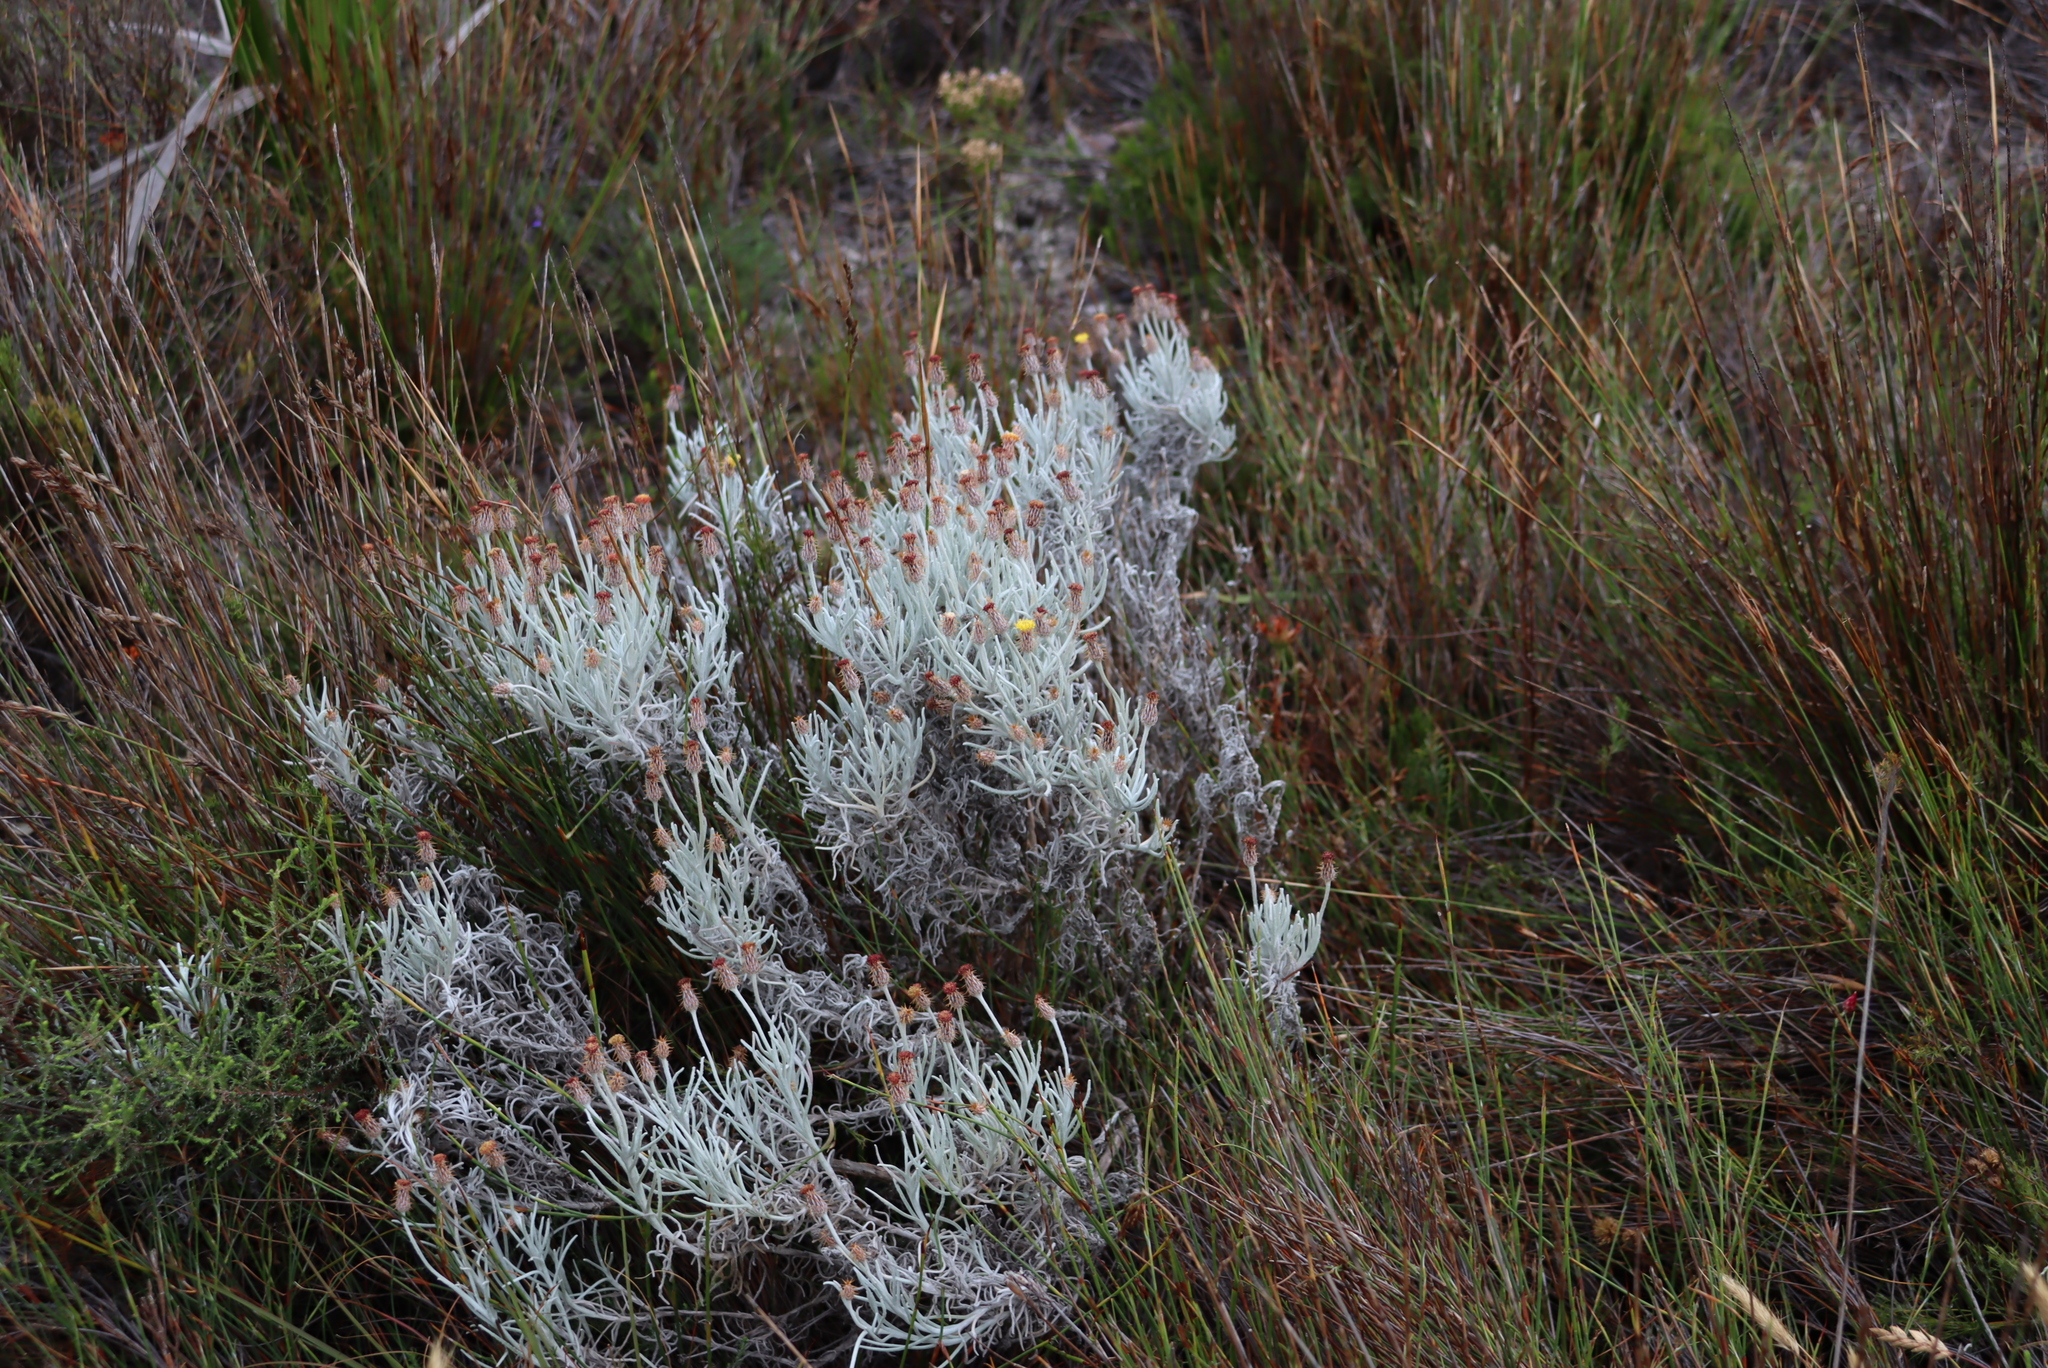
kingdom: Plantae
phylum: Tracheophyta
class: Magnoliopsida
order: Asterales
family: Asteraceae
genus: Syncarpha
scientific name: Syncarpha gnaphaloides
